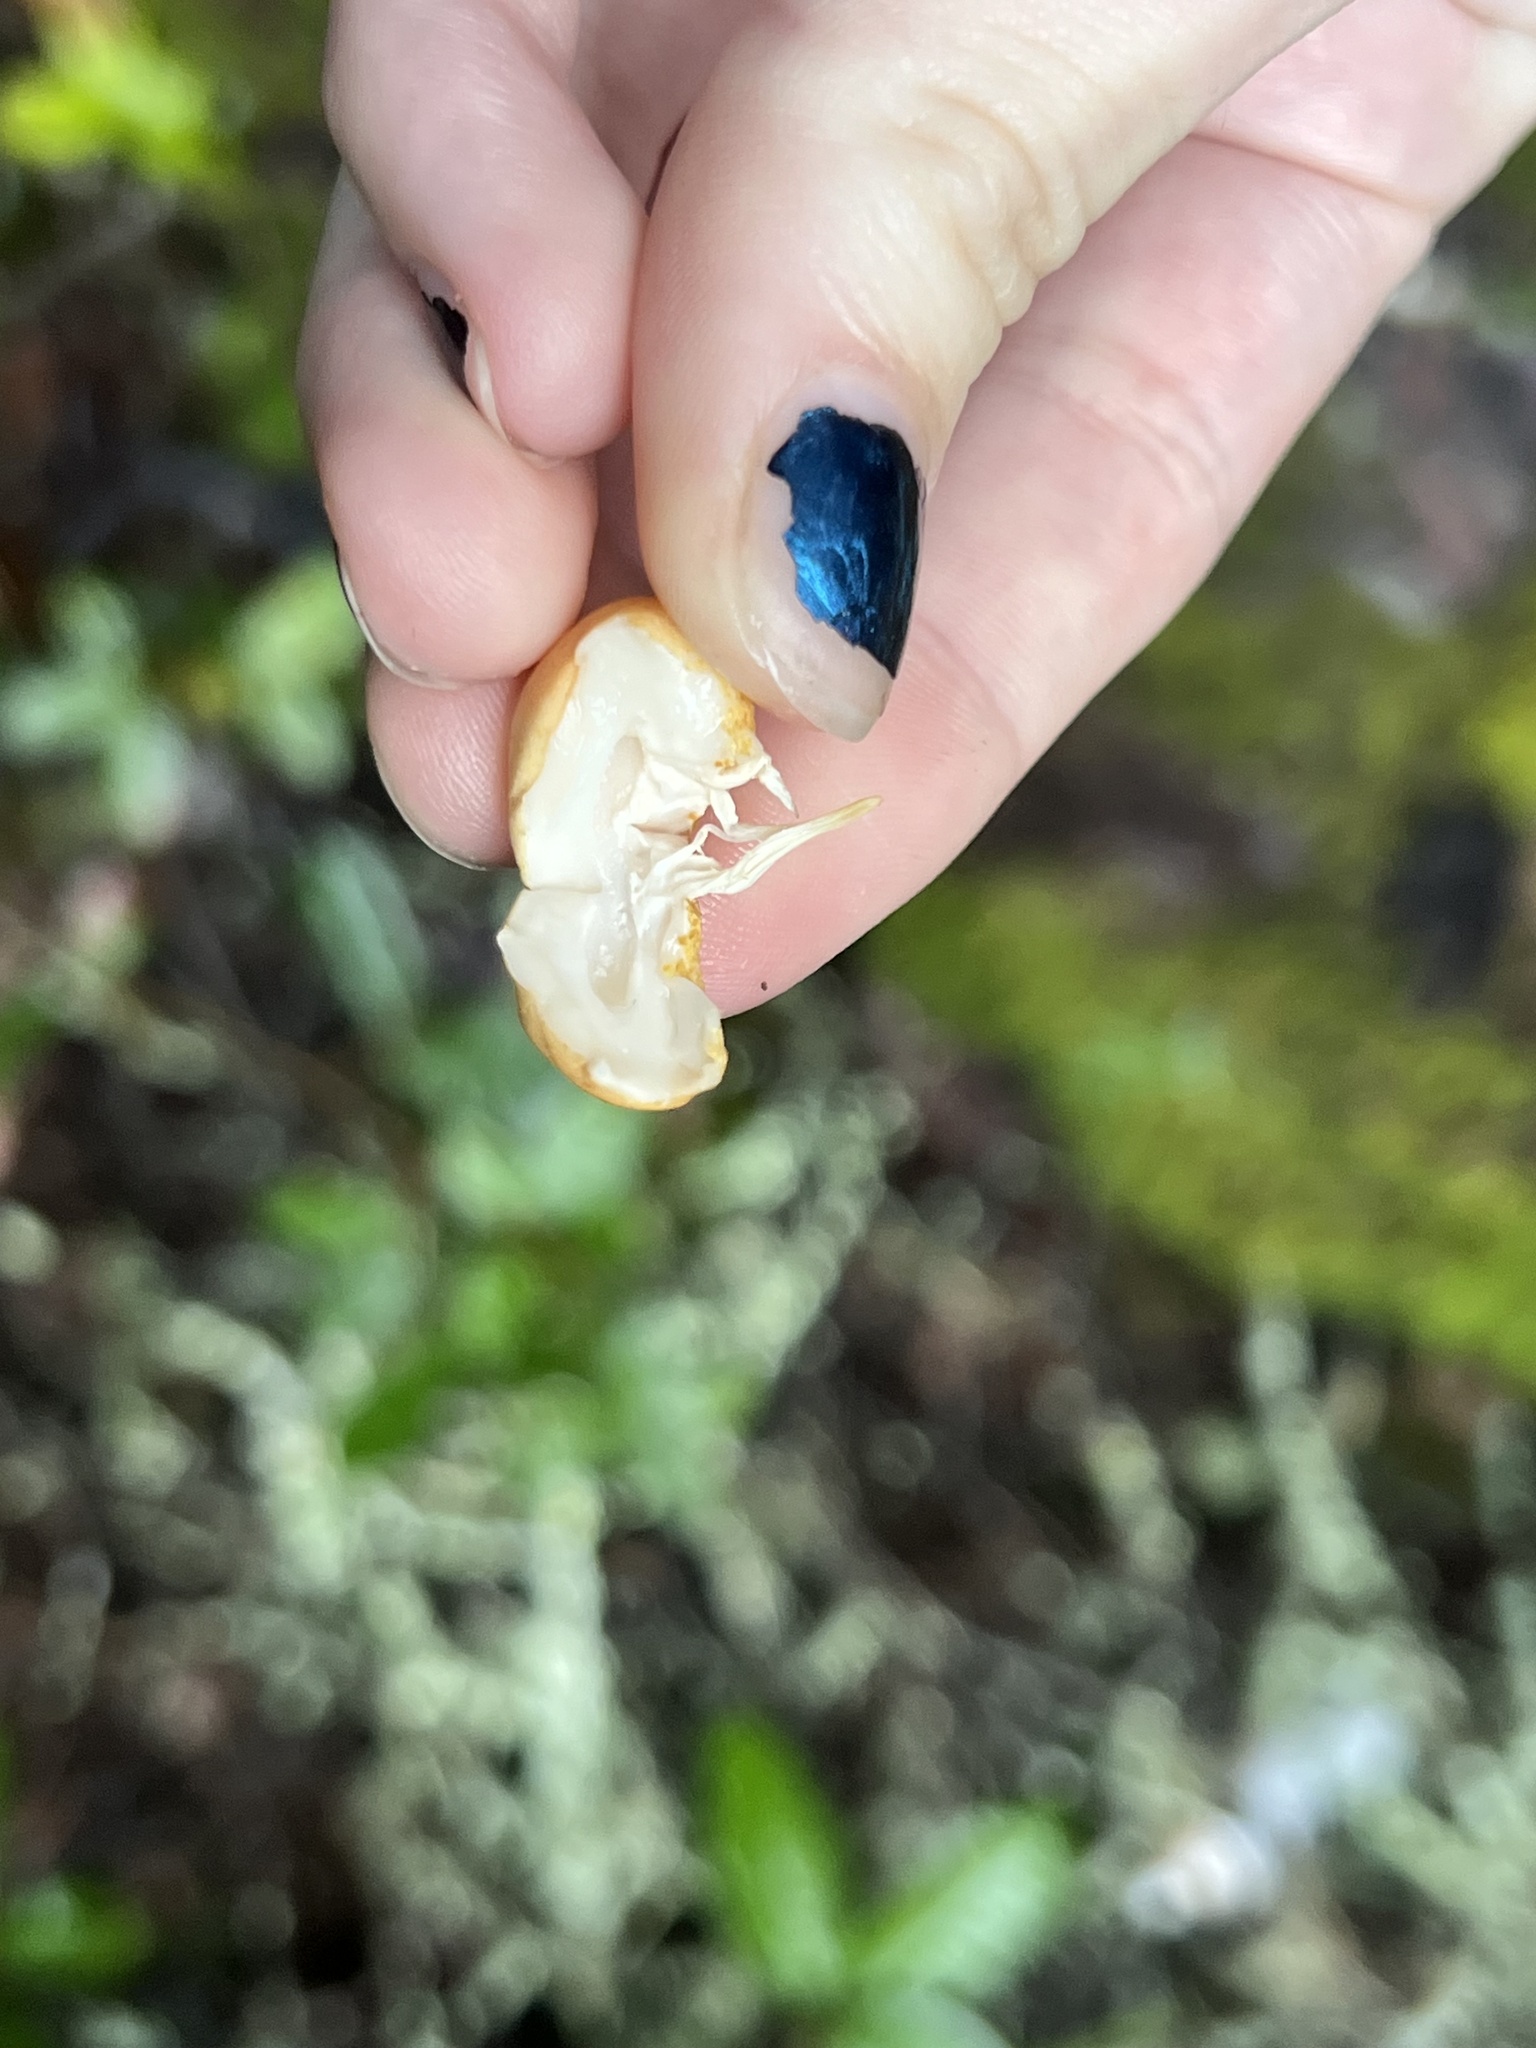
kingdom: Fungi
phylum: Basidiomycota
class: Agaricomycetes
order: Polyporales
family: Polyporaceae
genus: Cryptoporus
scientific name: Cryptoporus volvatus
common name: Veiled polypore
